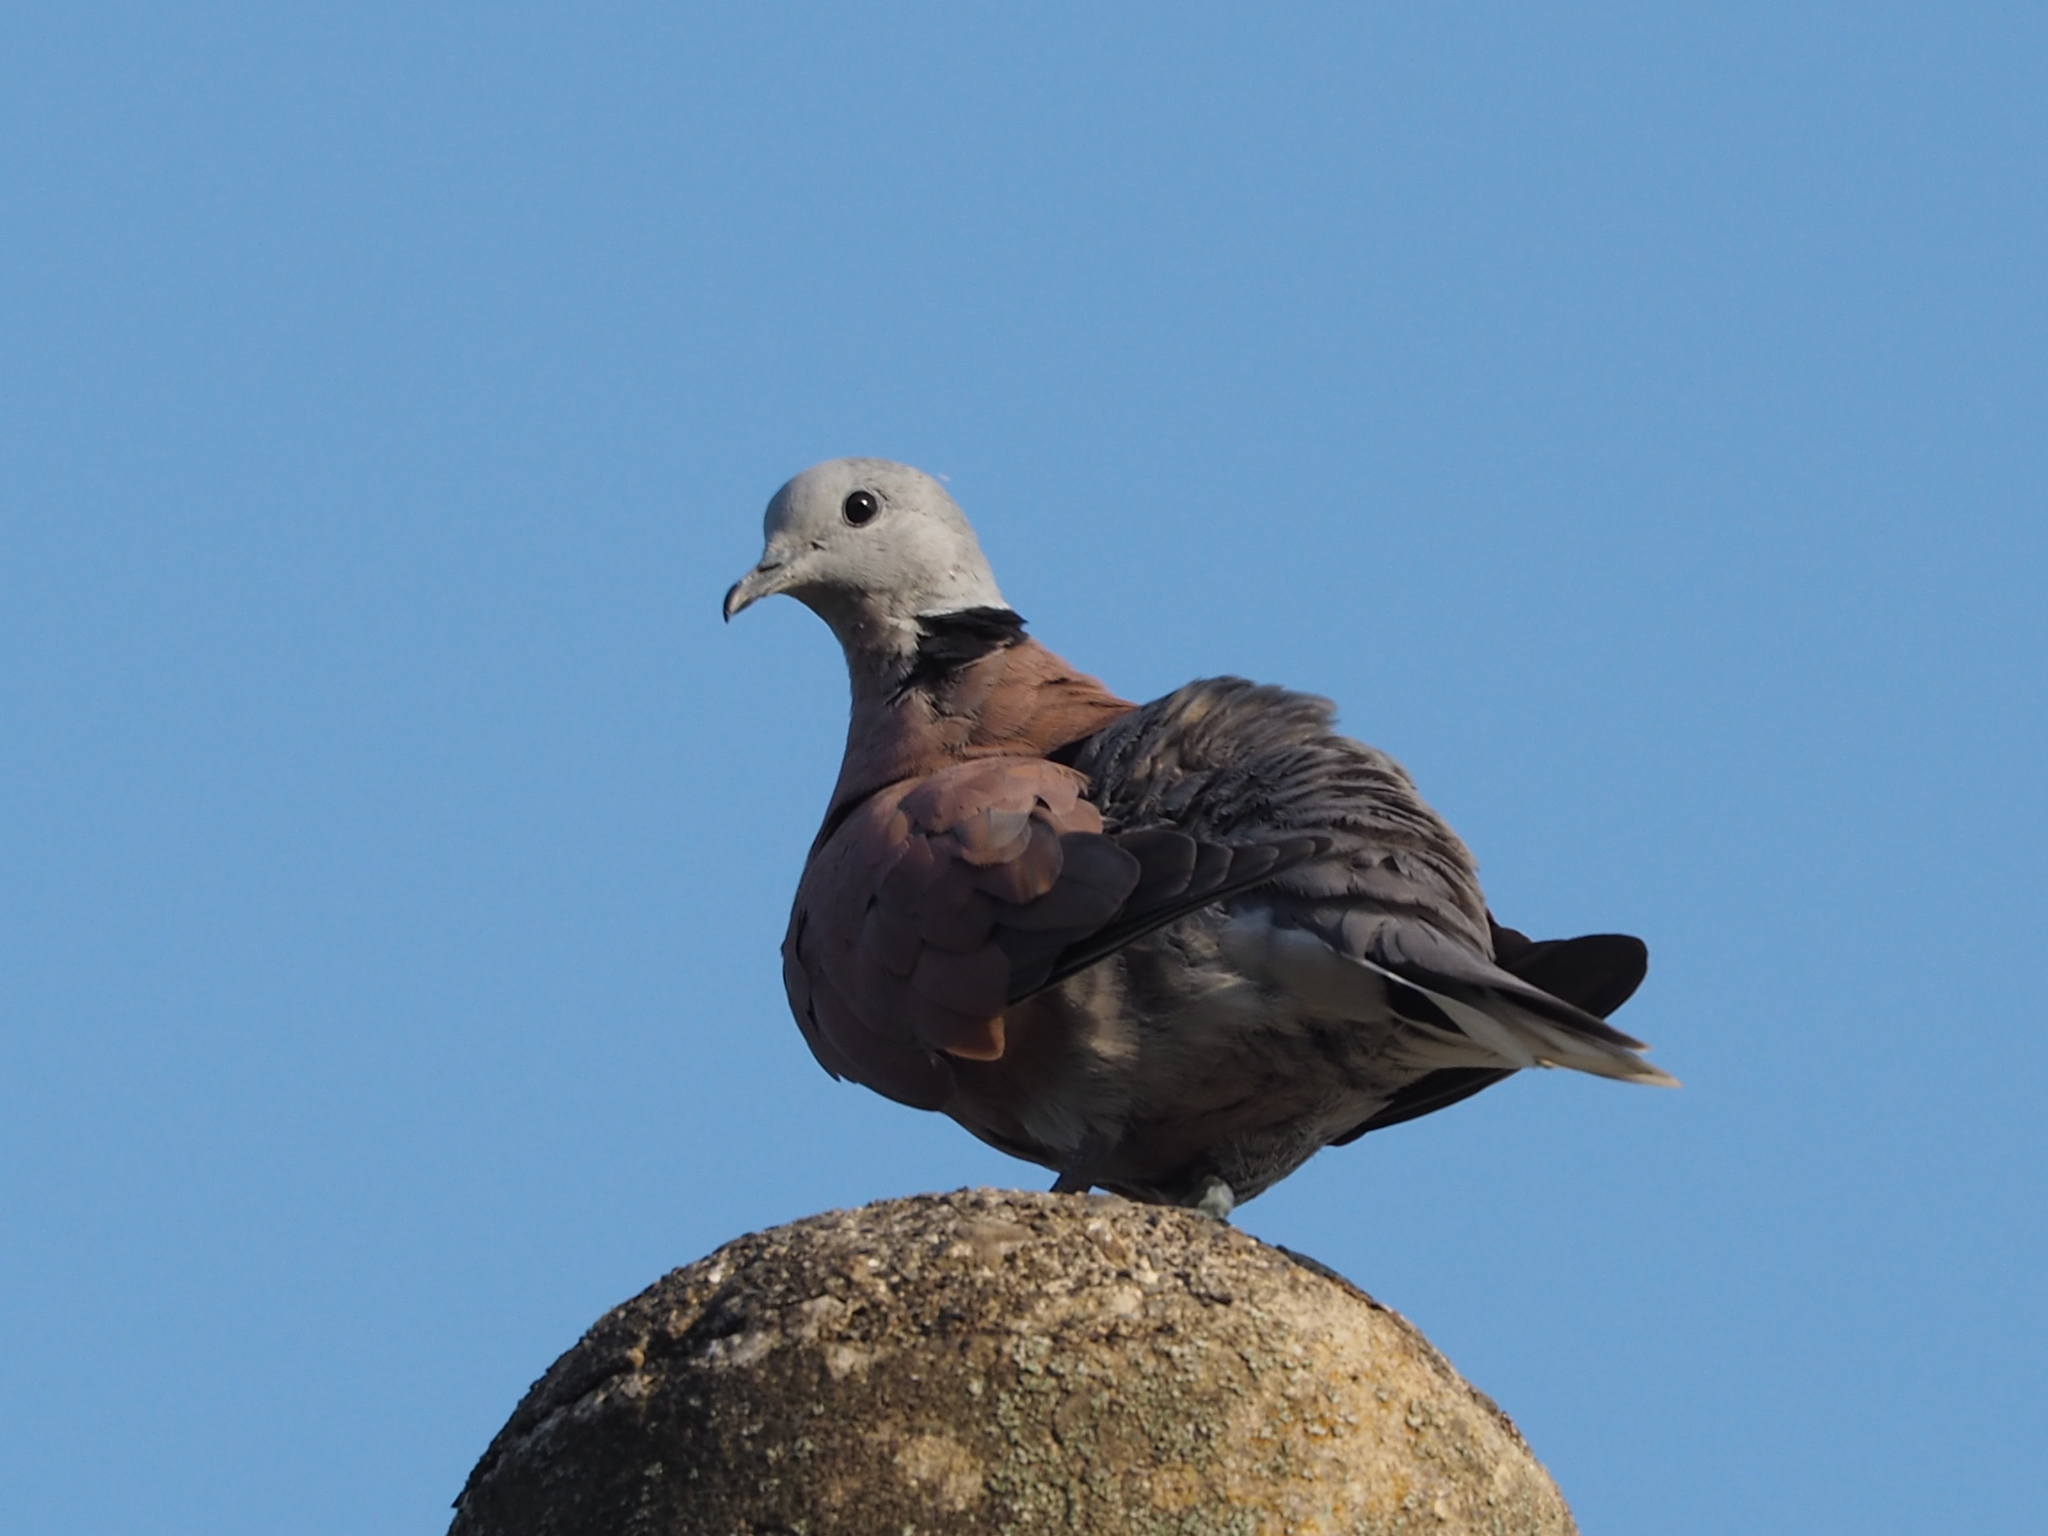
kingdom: Animalia
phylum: Chordata
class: Aves
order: Columbiformes
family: Columbidae
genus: Streptopelia
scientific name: Streptopelia tranquebarica
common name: Red turtle dove
